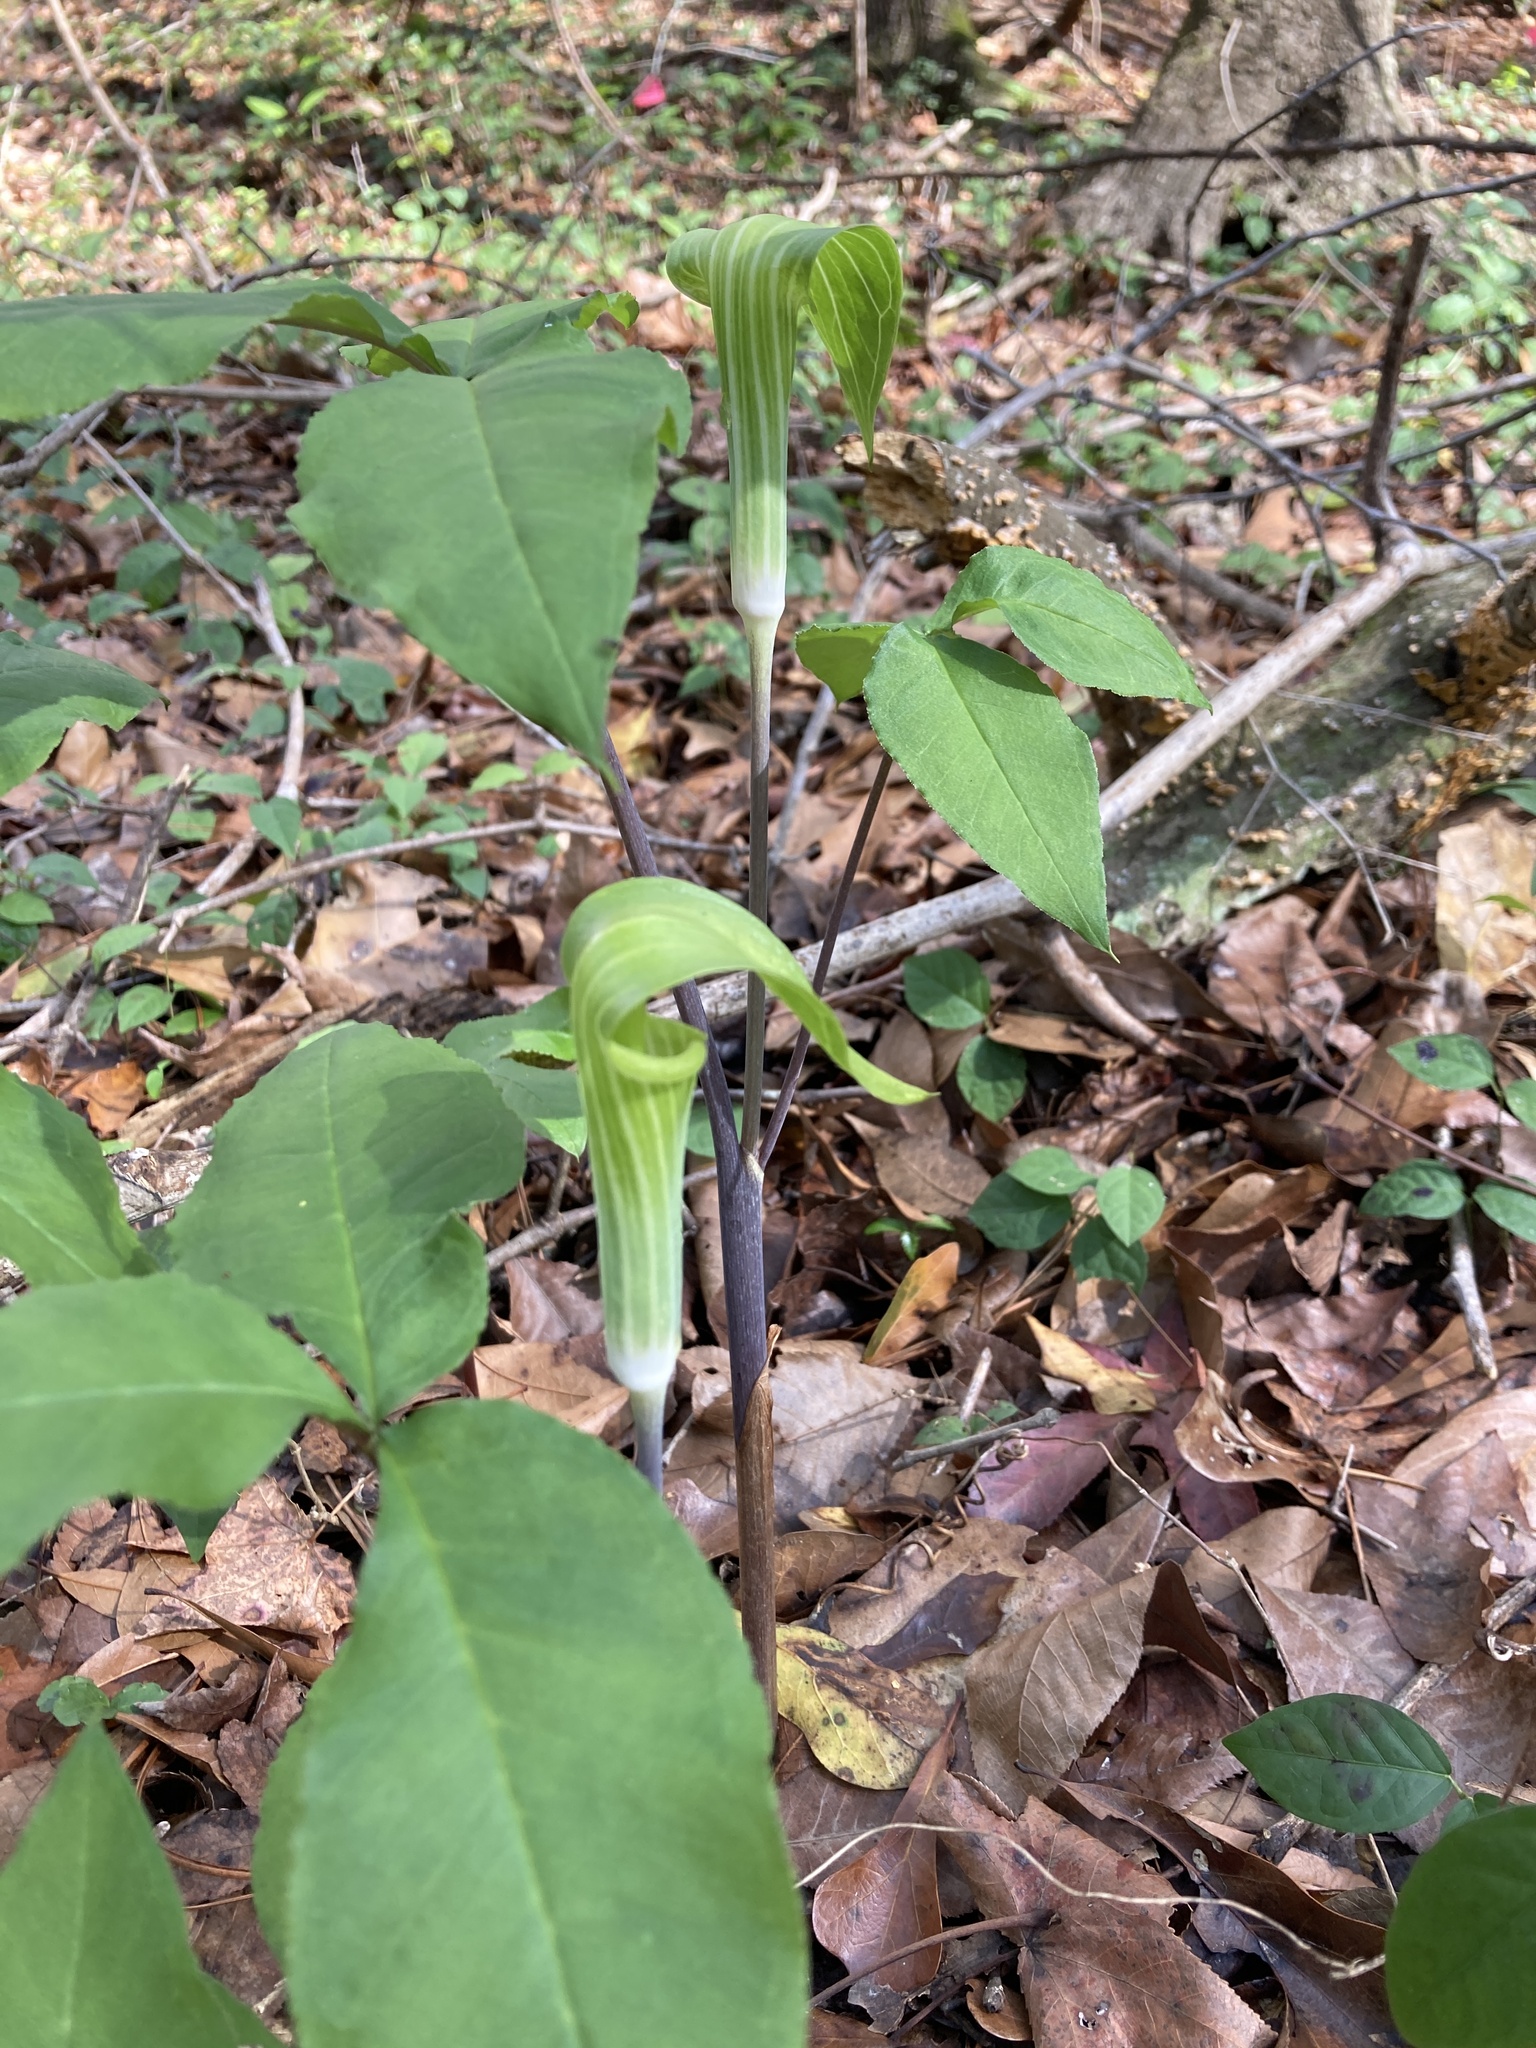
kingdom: Plantae
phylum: Tracheophyta
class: Liliopsida
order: Alismatales
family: Araceae
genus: Arisaema
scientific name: Arisaema acuminatum
